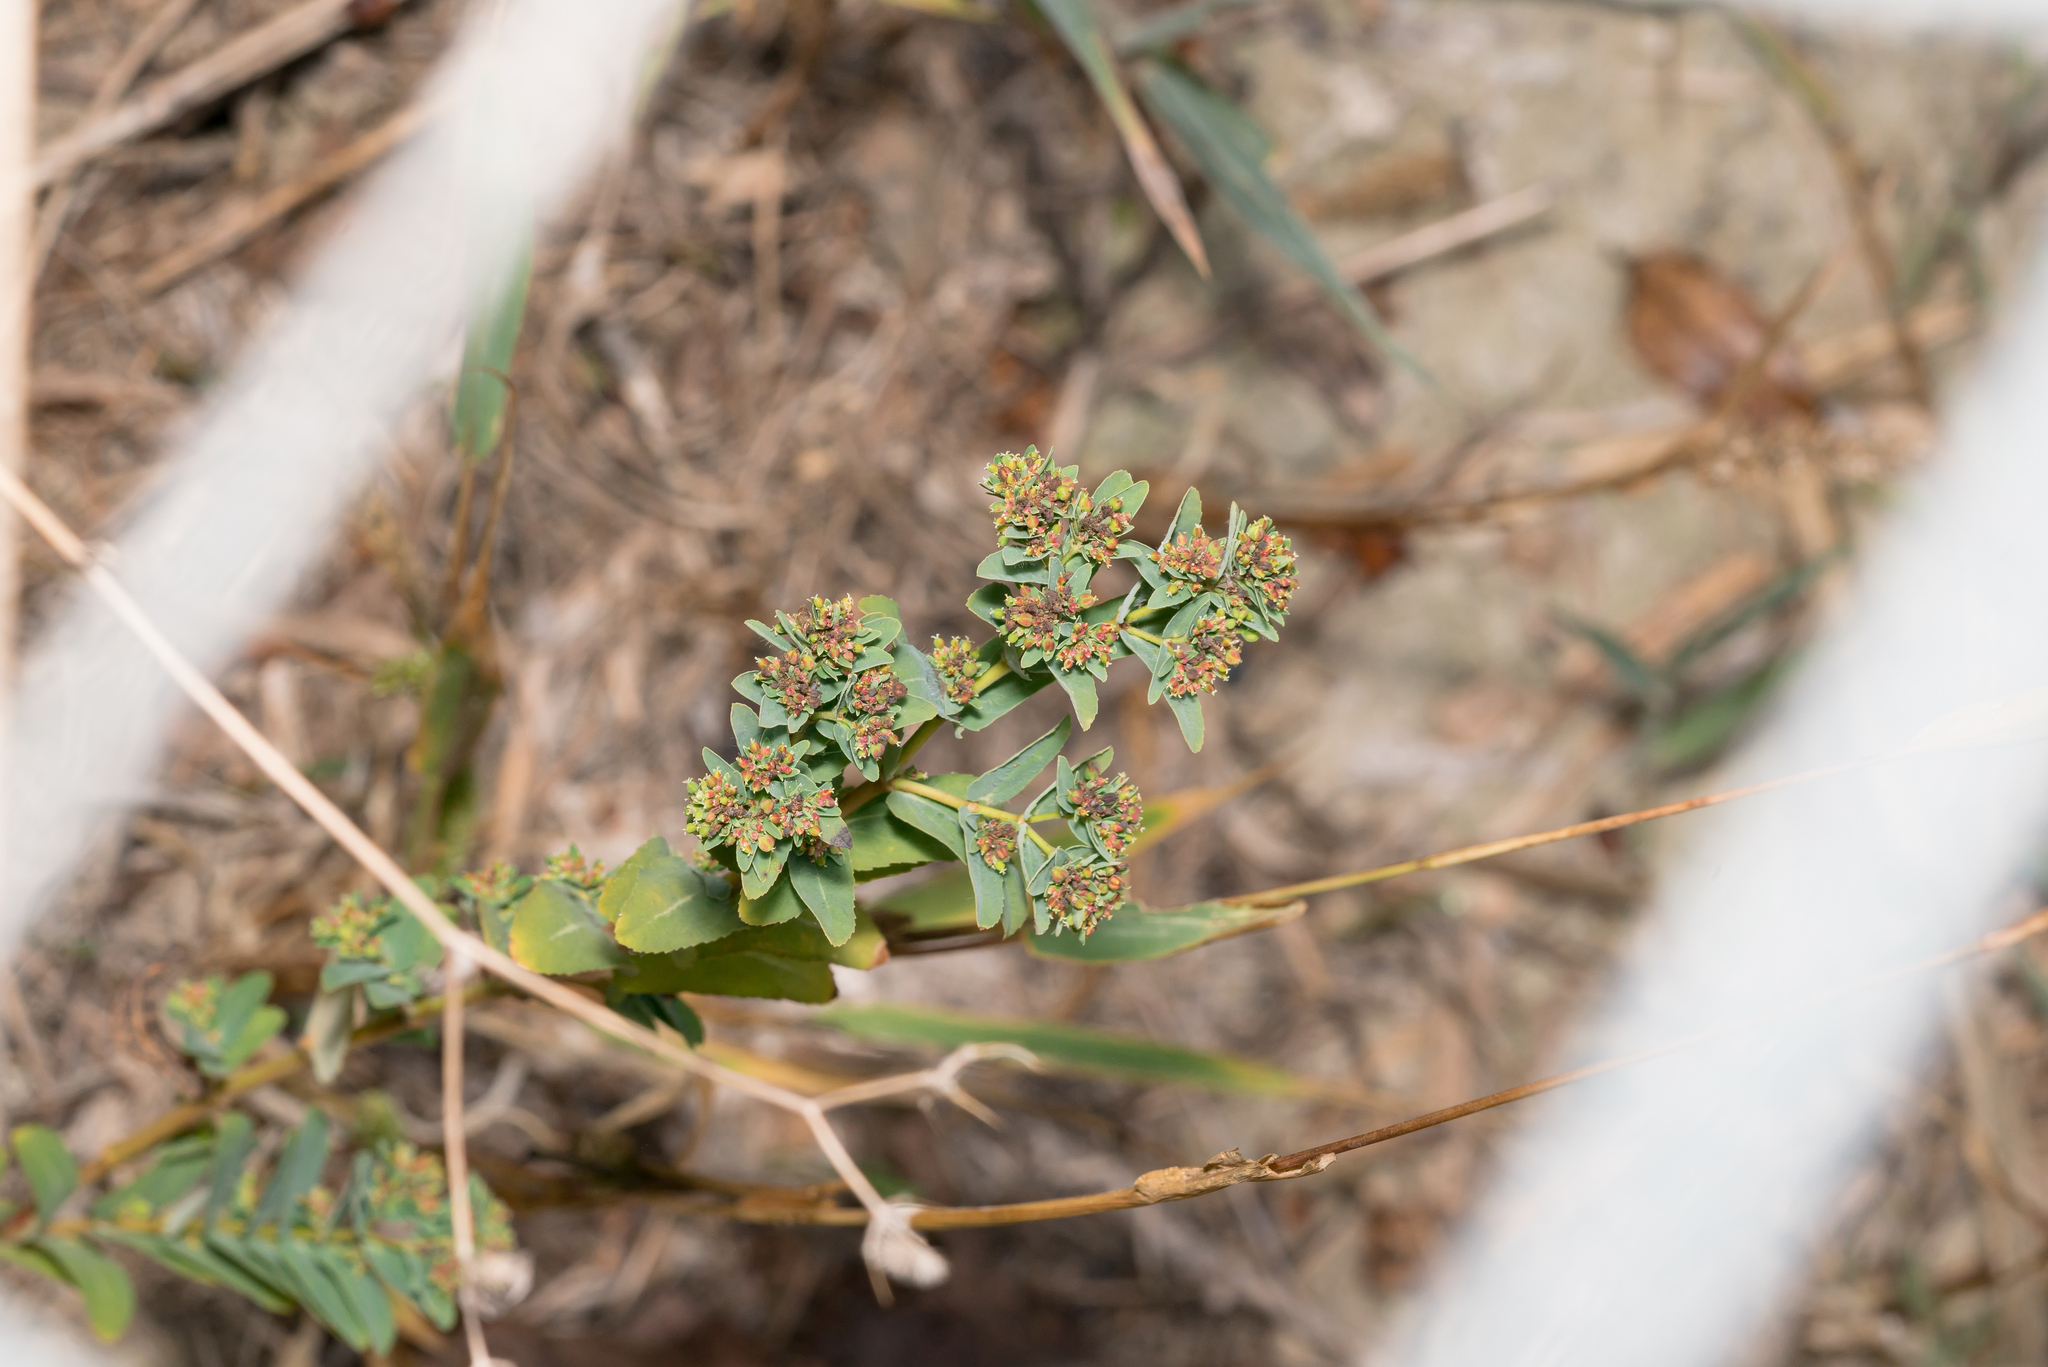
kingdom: Plantae
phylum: Tracheophyta
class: Magnoliopsida
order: Malpighiales
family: Euphorbiaceae
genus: Euphorbia
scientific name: Euphorbia nutans
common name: Eyebane
